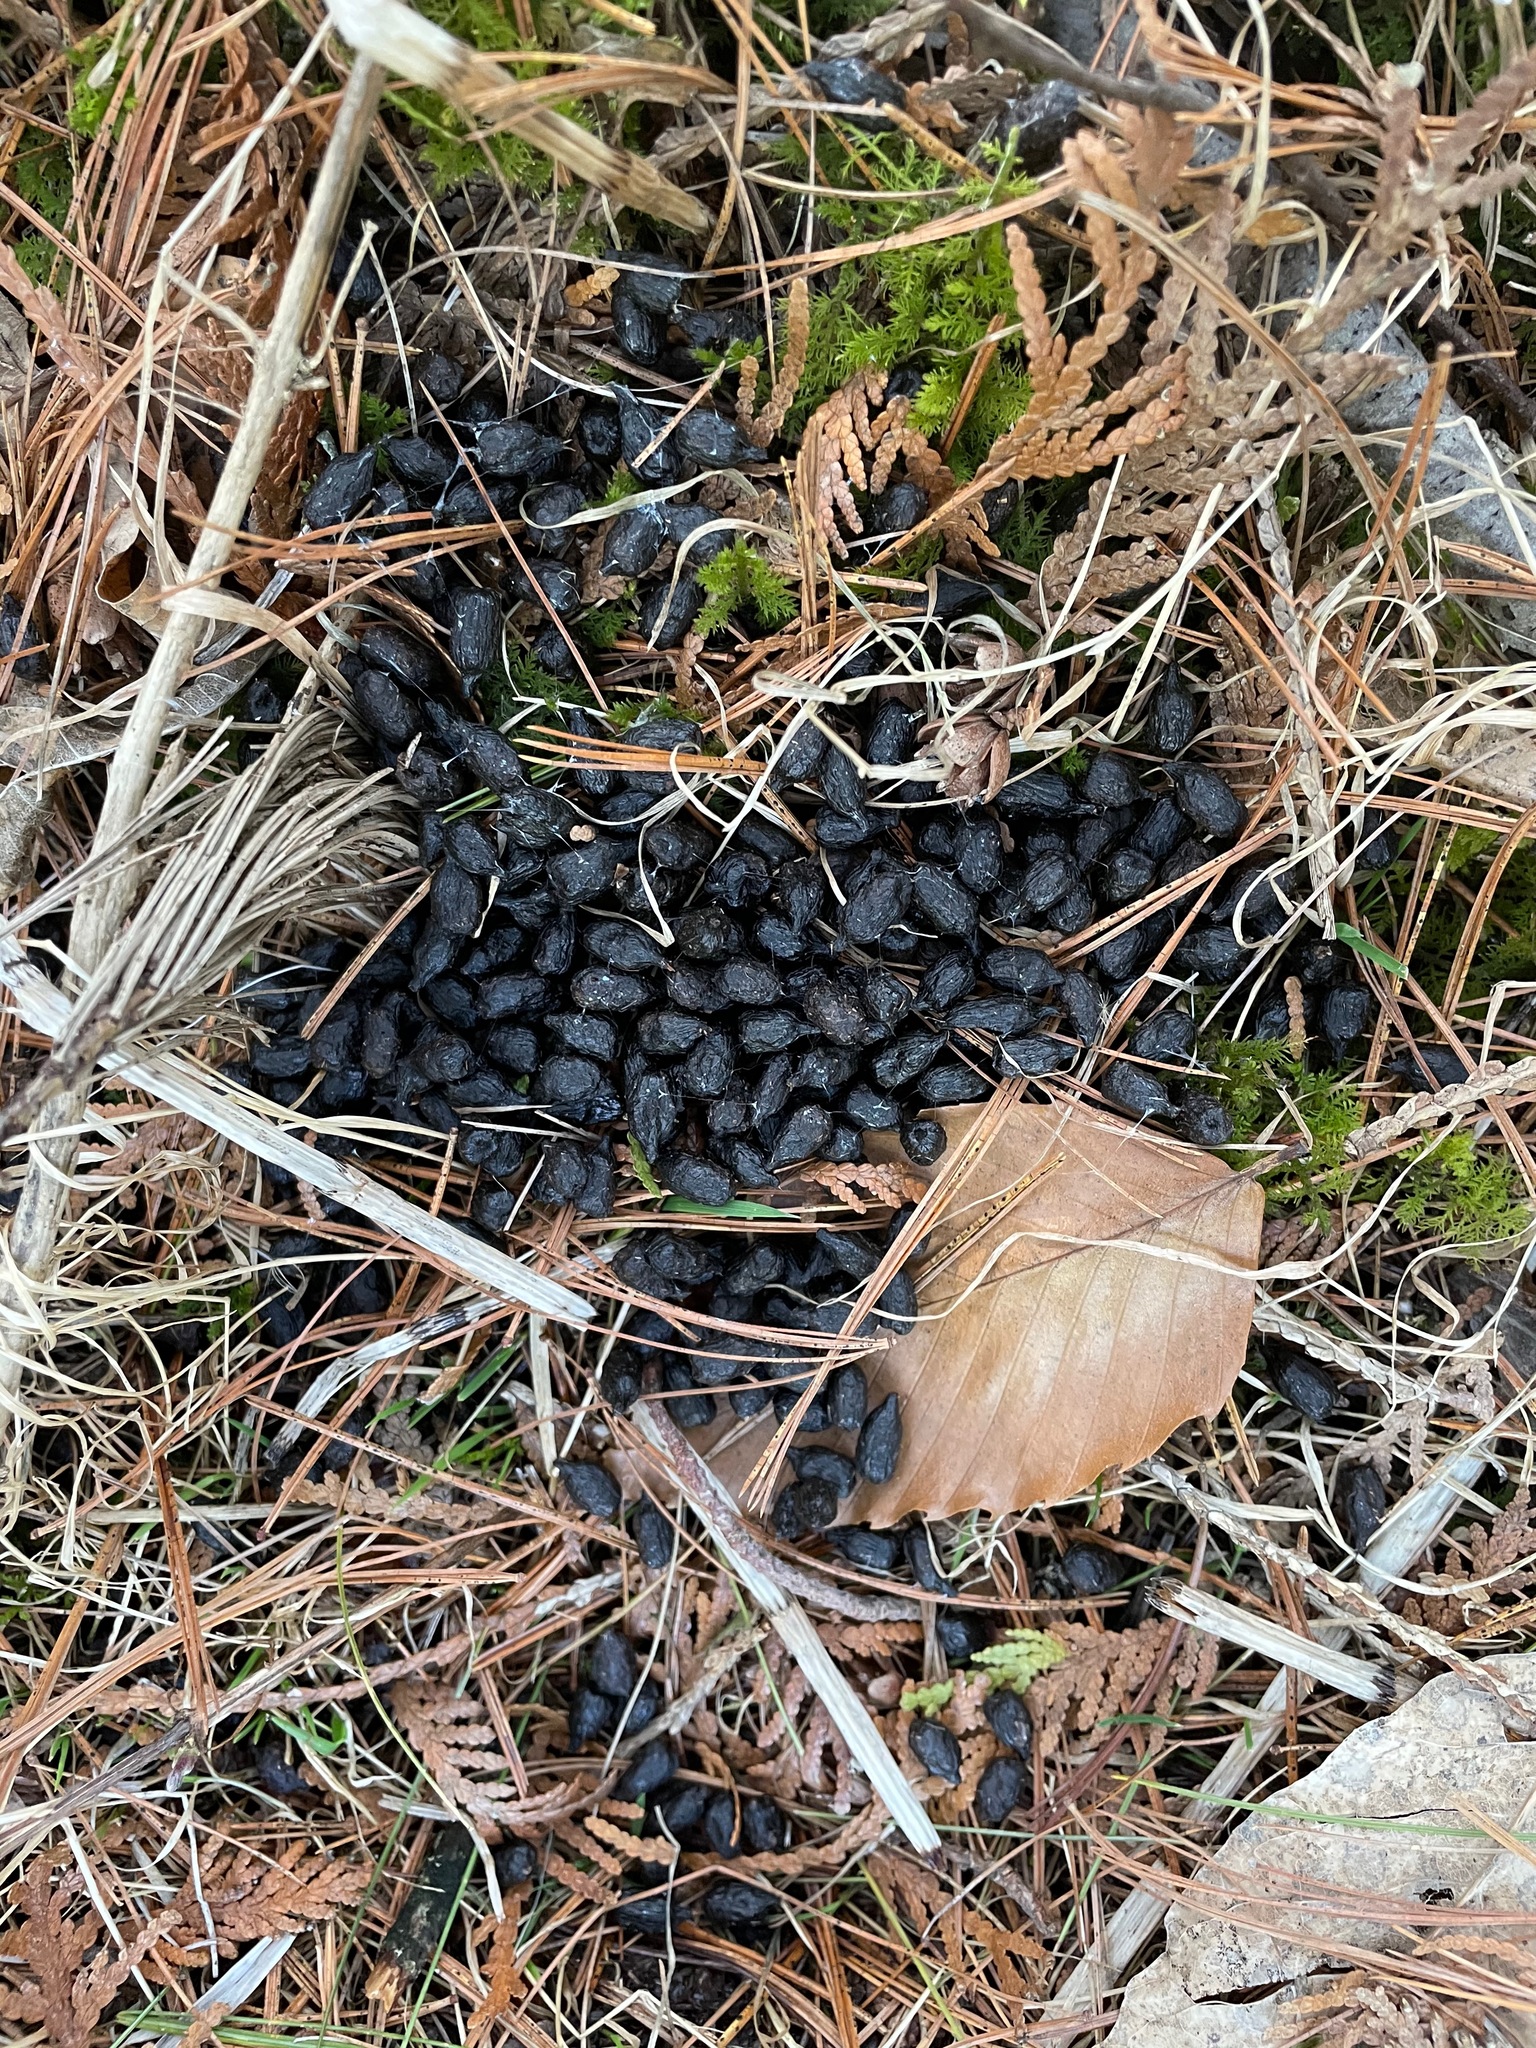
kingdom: Animalia
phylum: Chordata
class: Mammalia
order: Artiodactyla
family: Cervidae
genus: Odocoileus
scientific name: Odocoileus virginianus
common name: White-tailed deer
